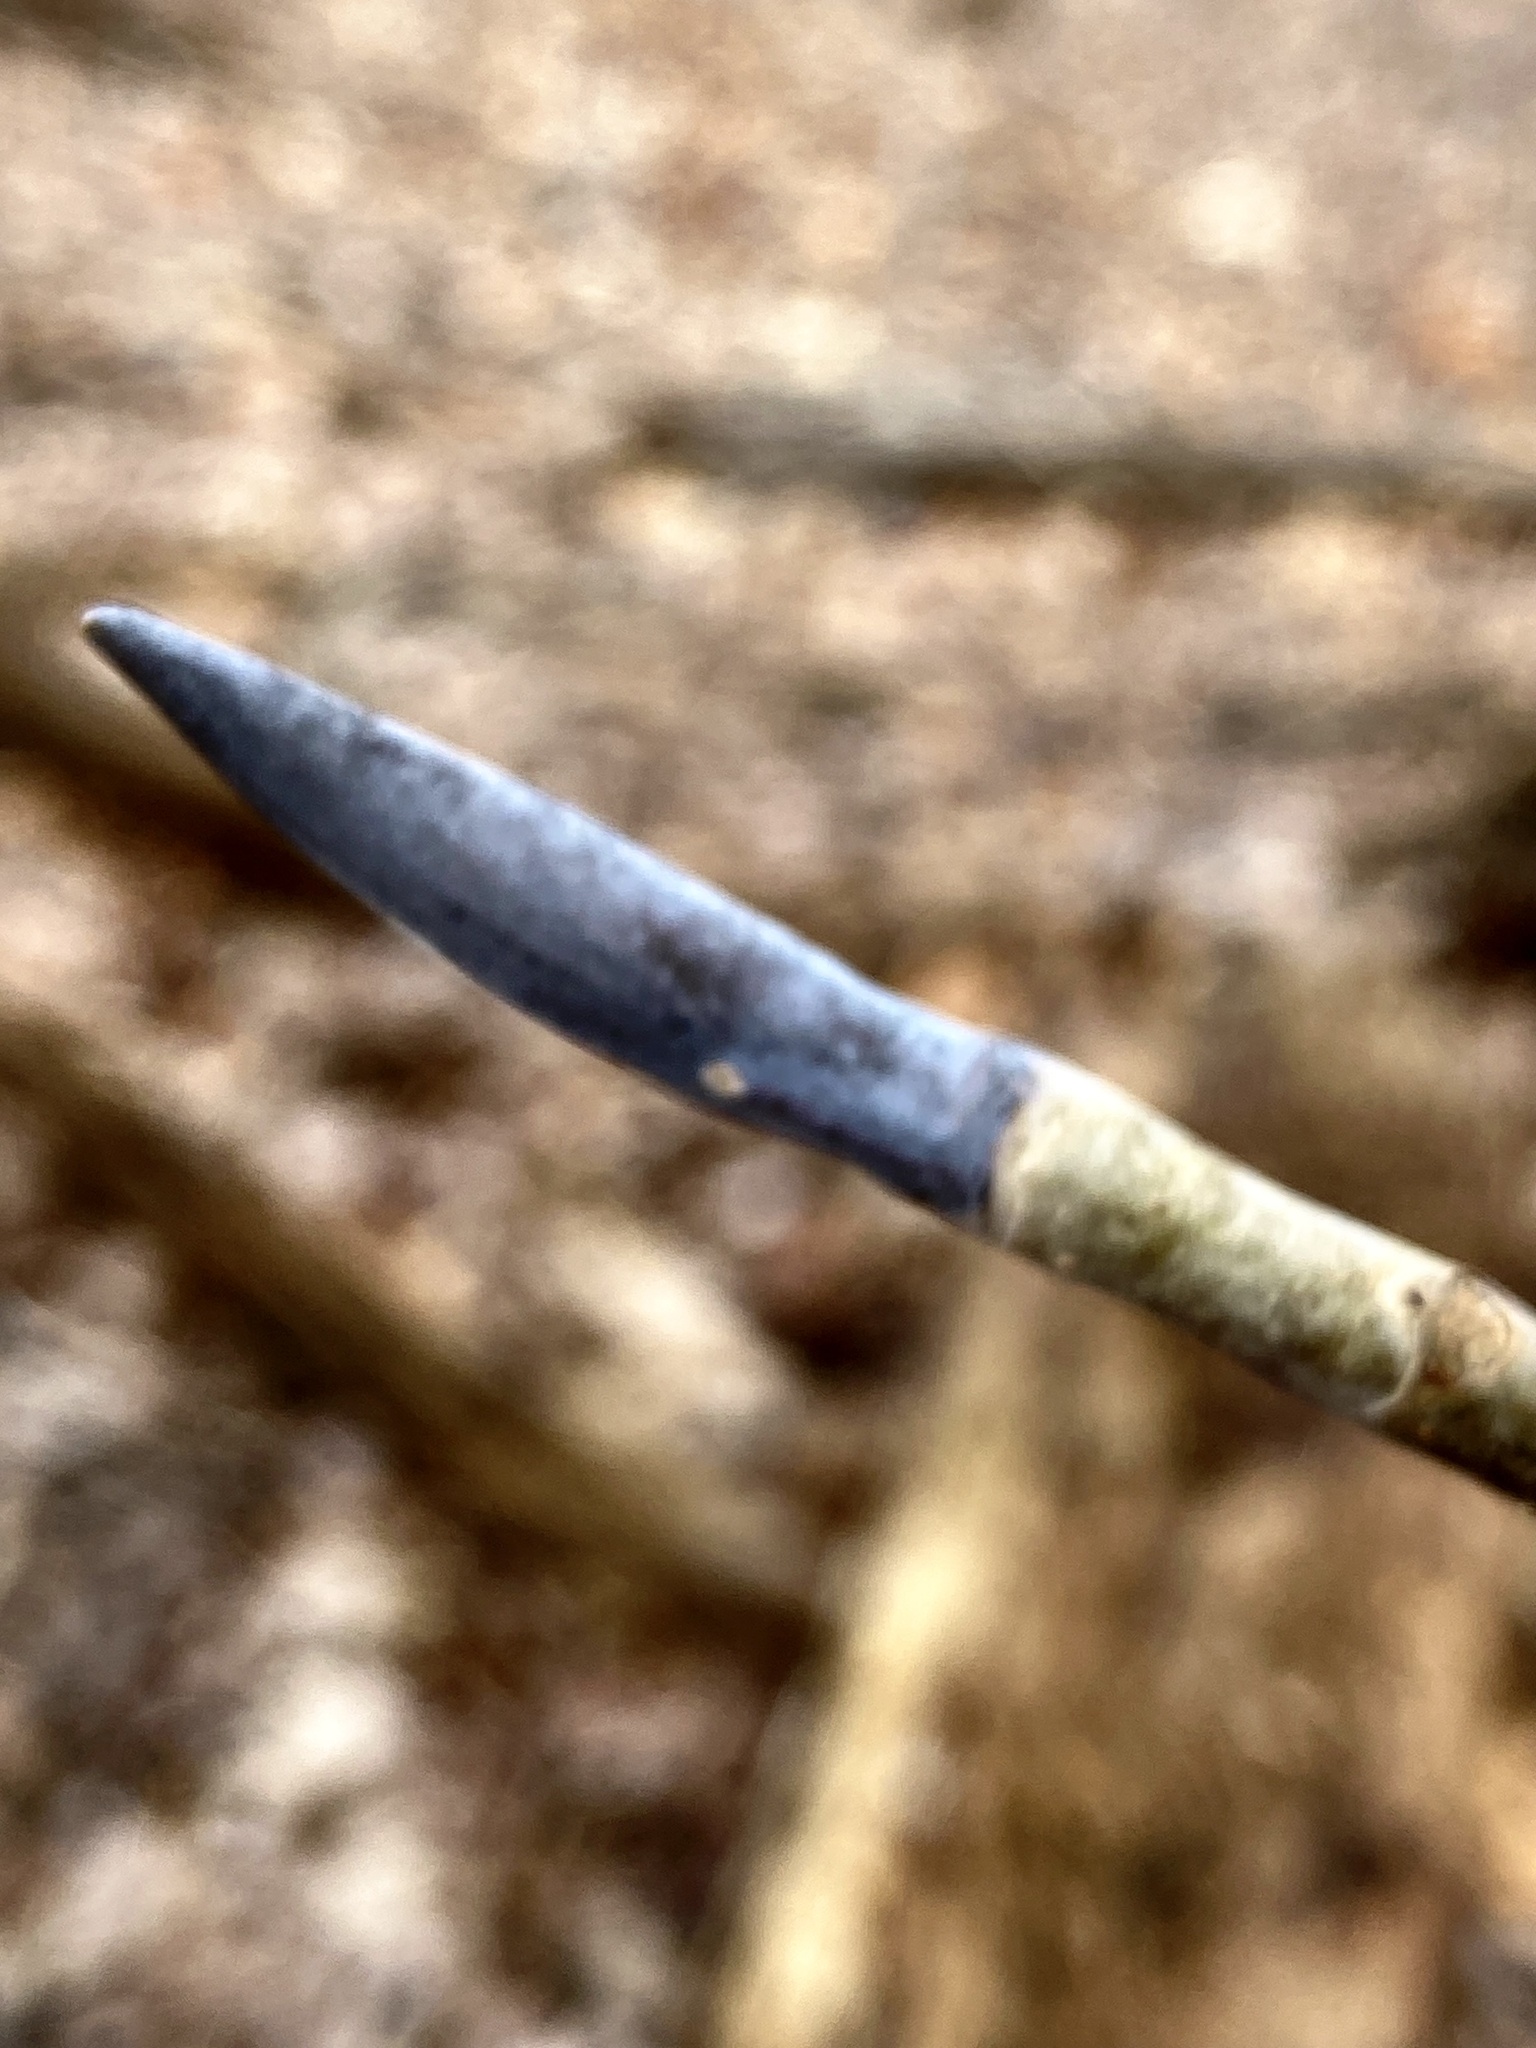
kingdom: Plantae
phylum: Tracheophyta
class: Magnoliopsida
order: Magnoliales
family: Magnoliaceae
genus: Magnolia
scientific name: Magnolia tripetala
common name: Umbrella magnolia
